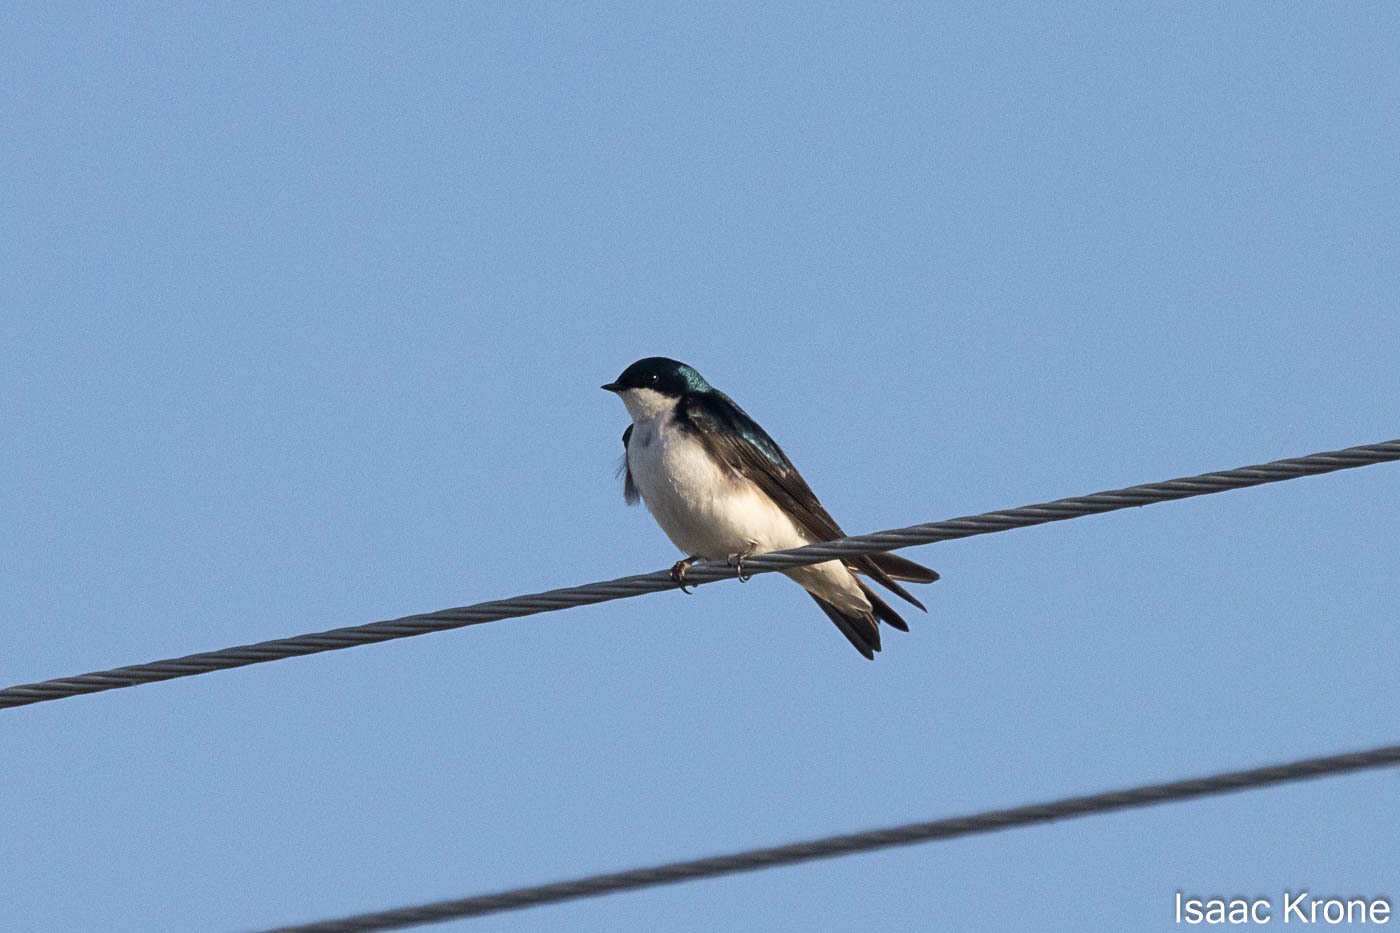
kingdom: Animalia
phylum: Chordata
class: Aves
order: Passeriformes
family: Hirundinidae
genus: Tachycineta
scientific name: Tachycineta bicolor
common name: Tree swallow
